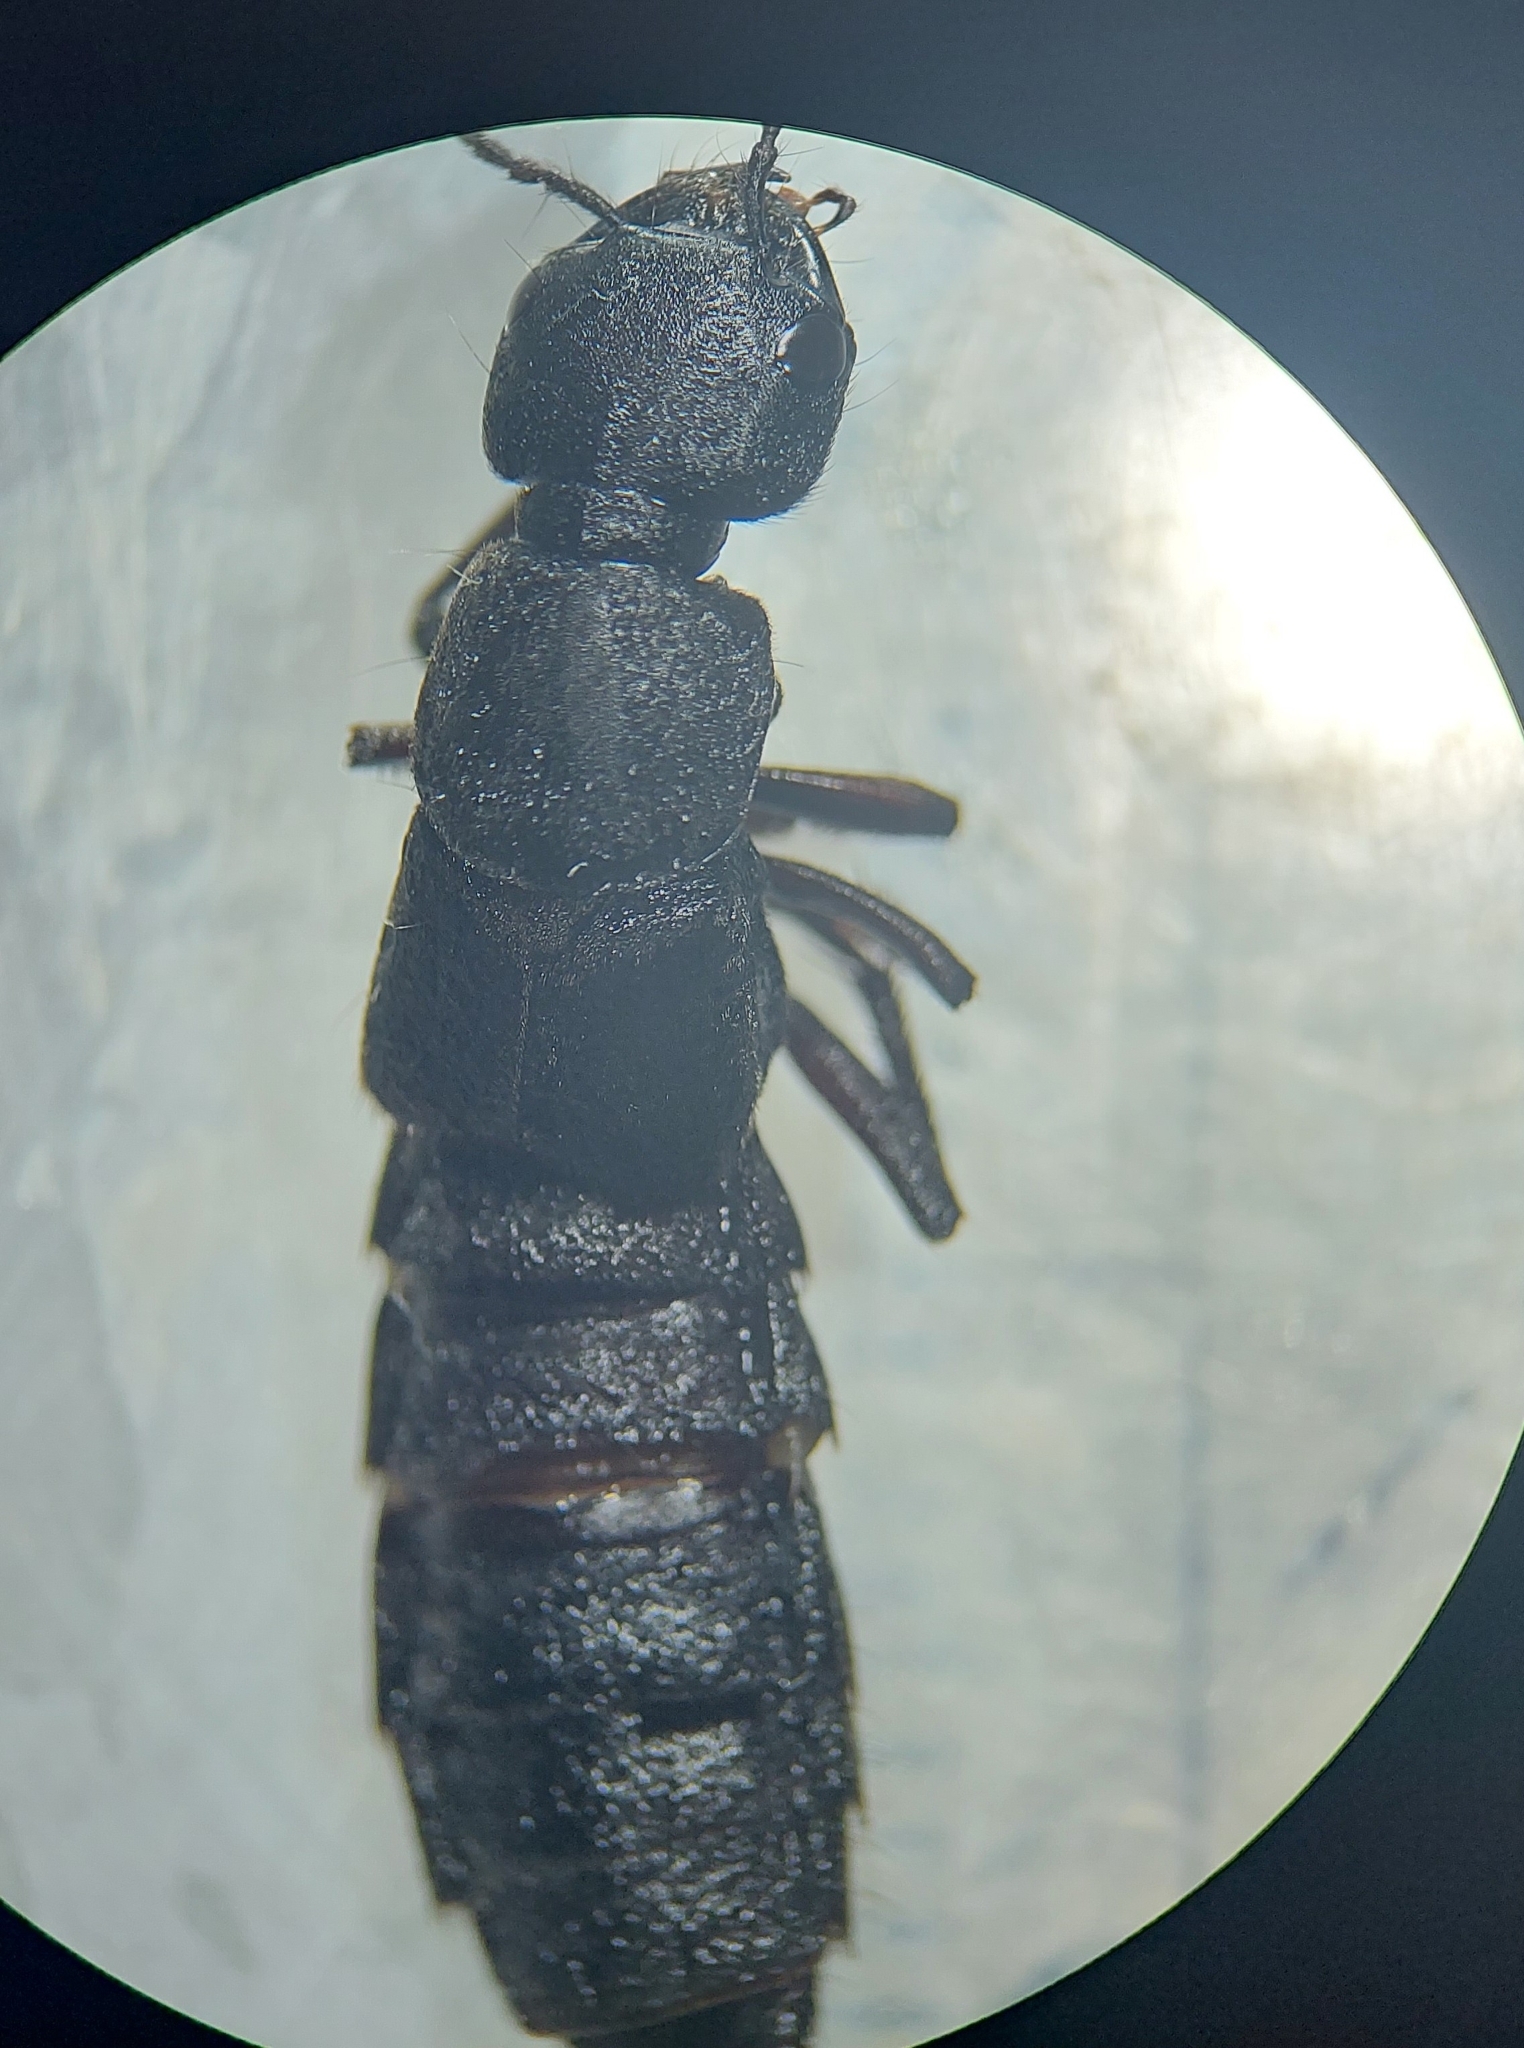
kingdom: Animalia
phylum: Arthropoda
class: Insecta
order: Coleoptera
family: Staphylinidae
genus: Ocypus
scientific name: Ocypus olens
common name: Devil's coach-horse
